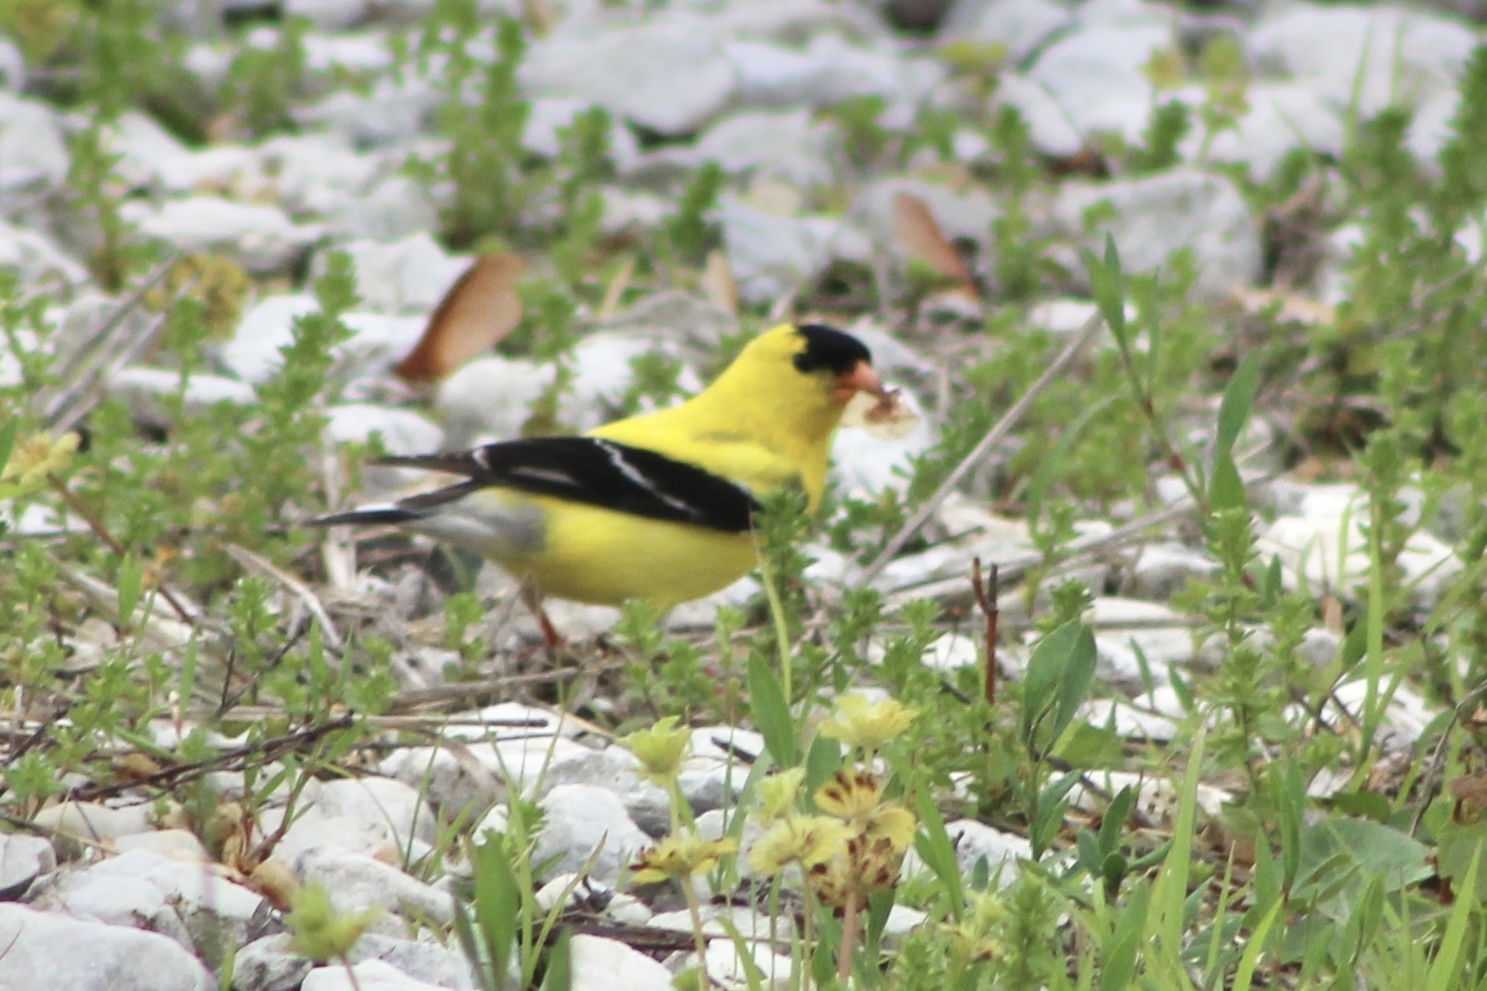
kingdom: Animalia
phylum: Chordata
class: Aves
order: Passeriformes
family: Fringillidae
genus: Spinus
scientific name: Spinus tristis
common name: American goldfinch
